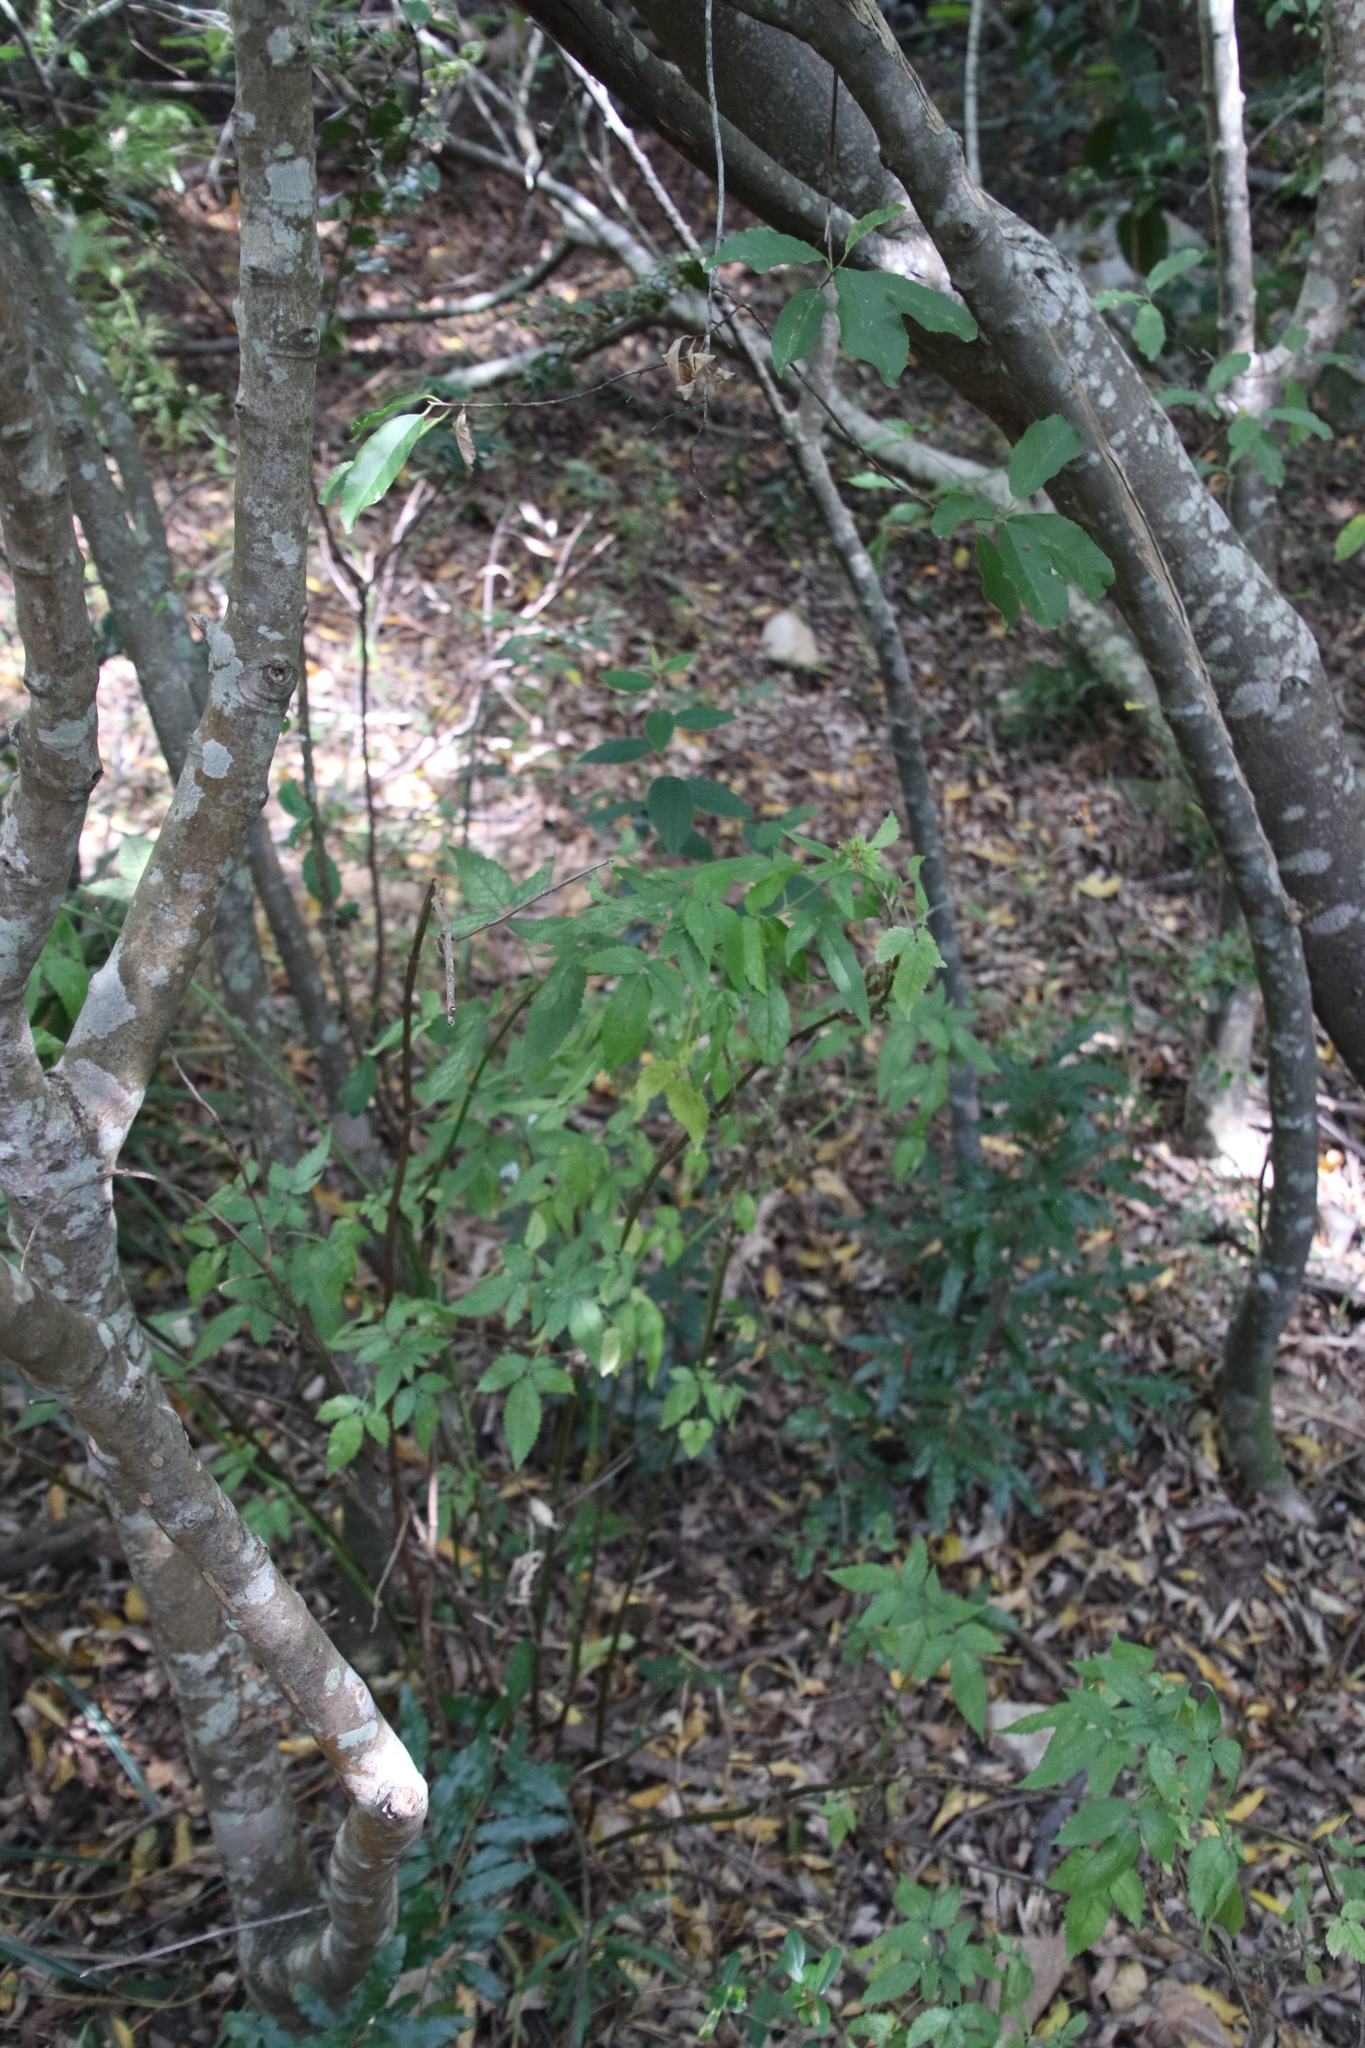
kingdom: Plantae
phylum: Tracheophyta
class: Magnoliopsida
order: Lamiales
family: Lamiaceae
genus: Cedronella
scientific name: Cedronella canariensis
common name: Canary islands balm
